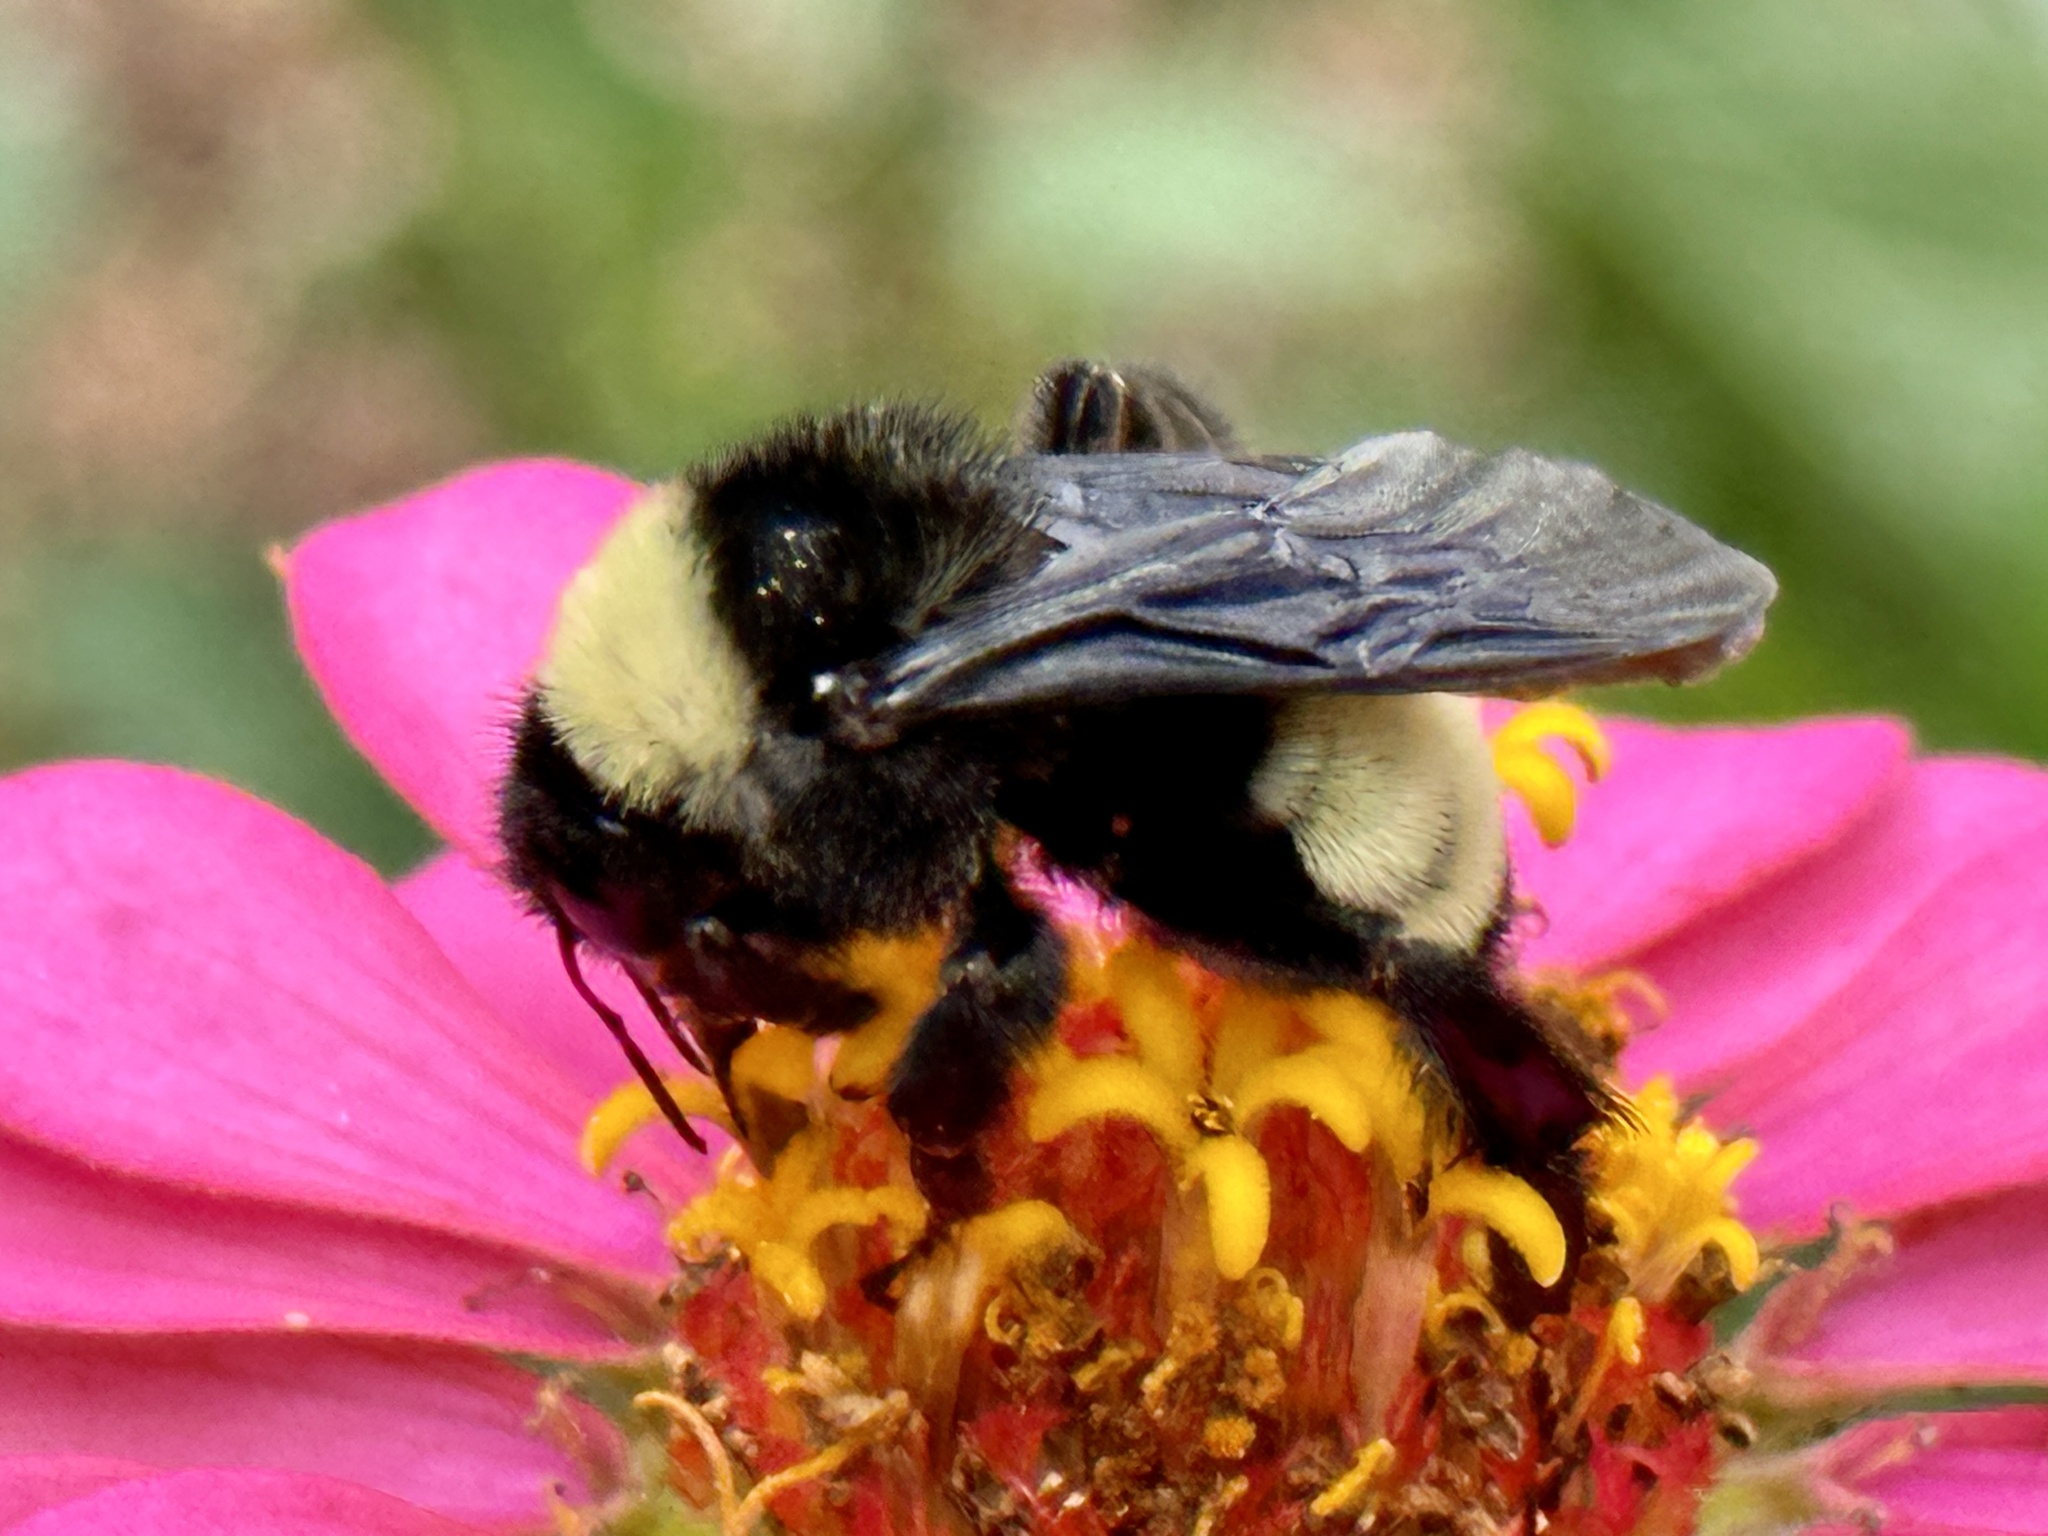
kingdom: Animalia
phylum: Arthropoda
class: Insecta
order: Hymenoptera
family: Apidae
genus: Bombus
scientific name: Bombus pensylvanicus
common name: Bumble bee
